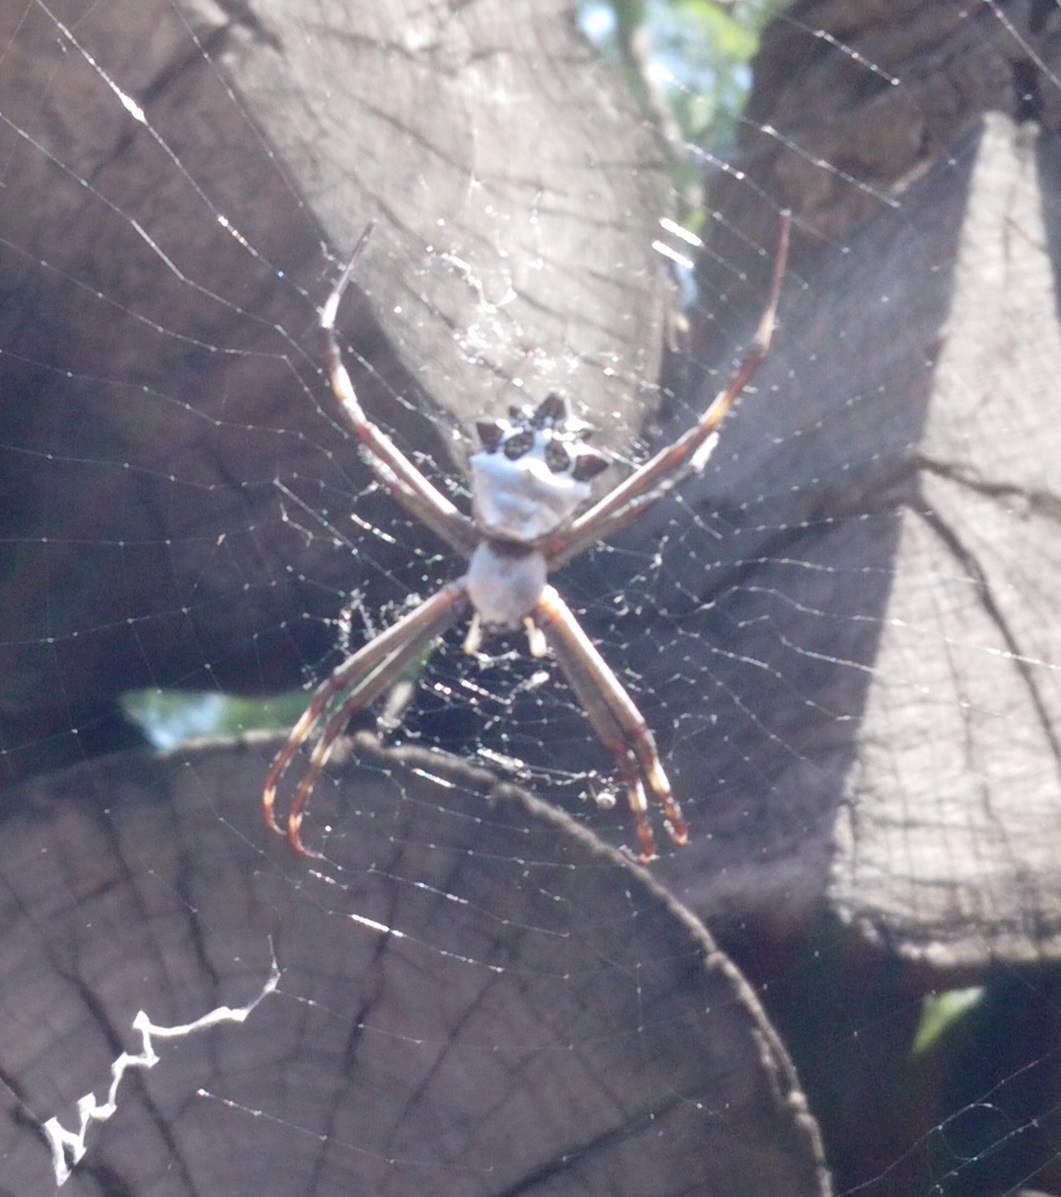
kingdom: Animalia
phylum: Arthropoda
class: Arachnida
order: Araneae
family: Araneidae
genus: Argiope
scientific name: Argiope argentata
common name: Orb weavers
